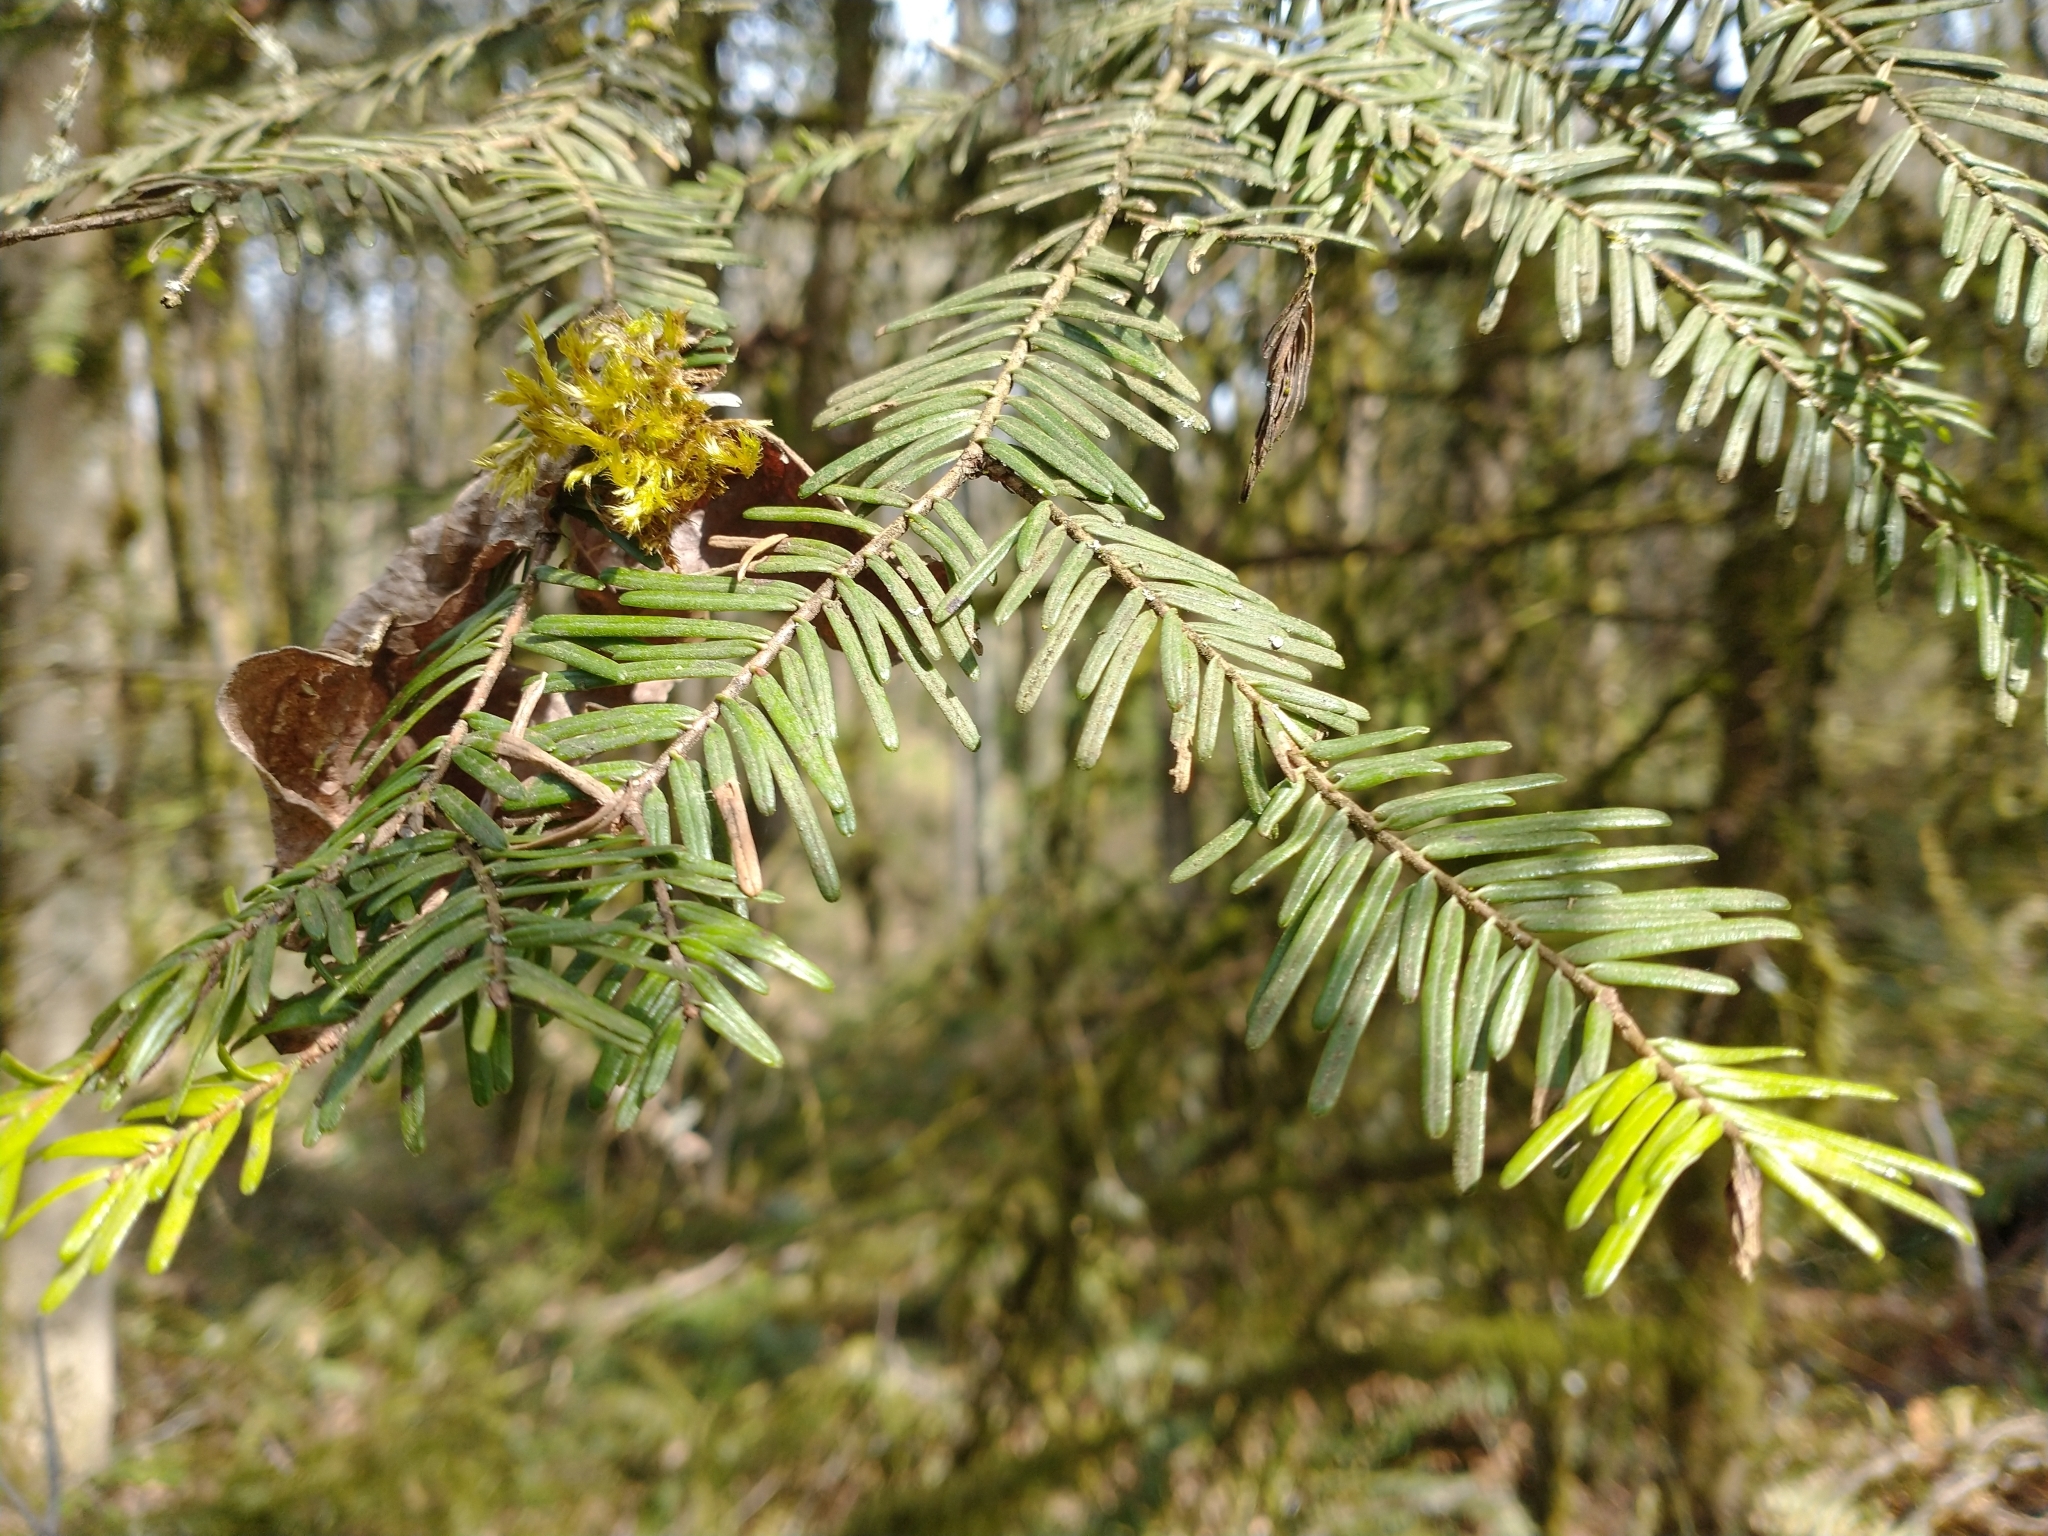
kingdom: Plantae
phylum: Tracheophyta
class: Pinopsida
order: Pinales
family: Pinaceae
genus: Abies
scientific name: Abies grandis
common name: Giant fir
